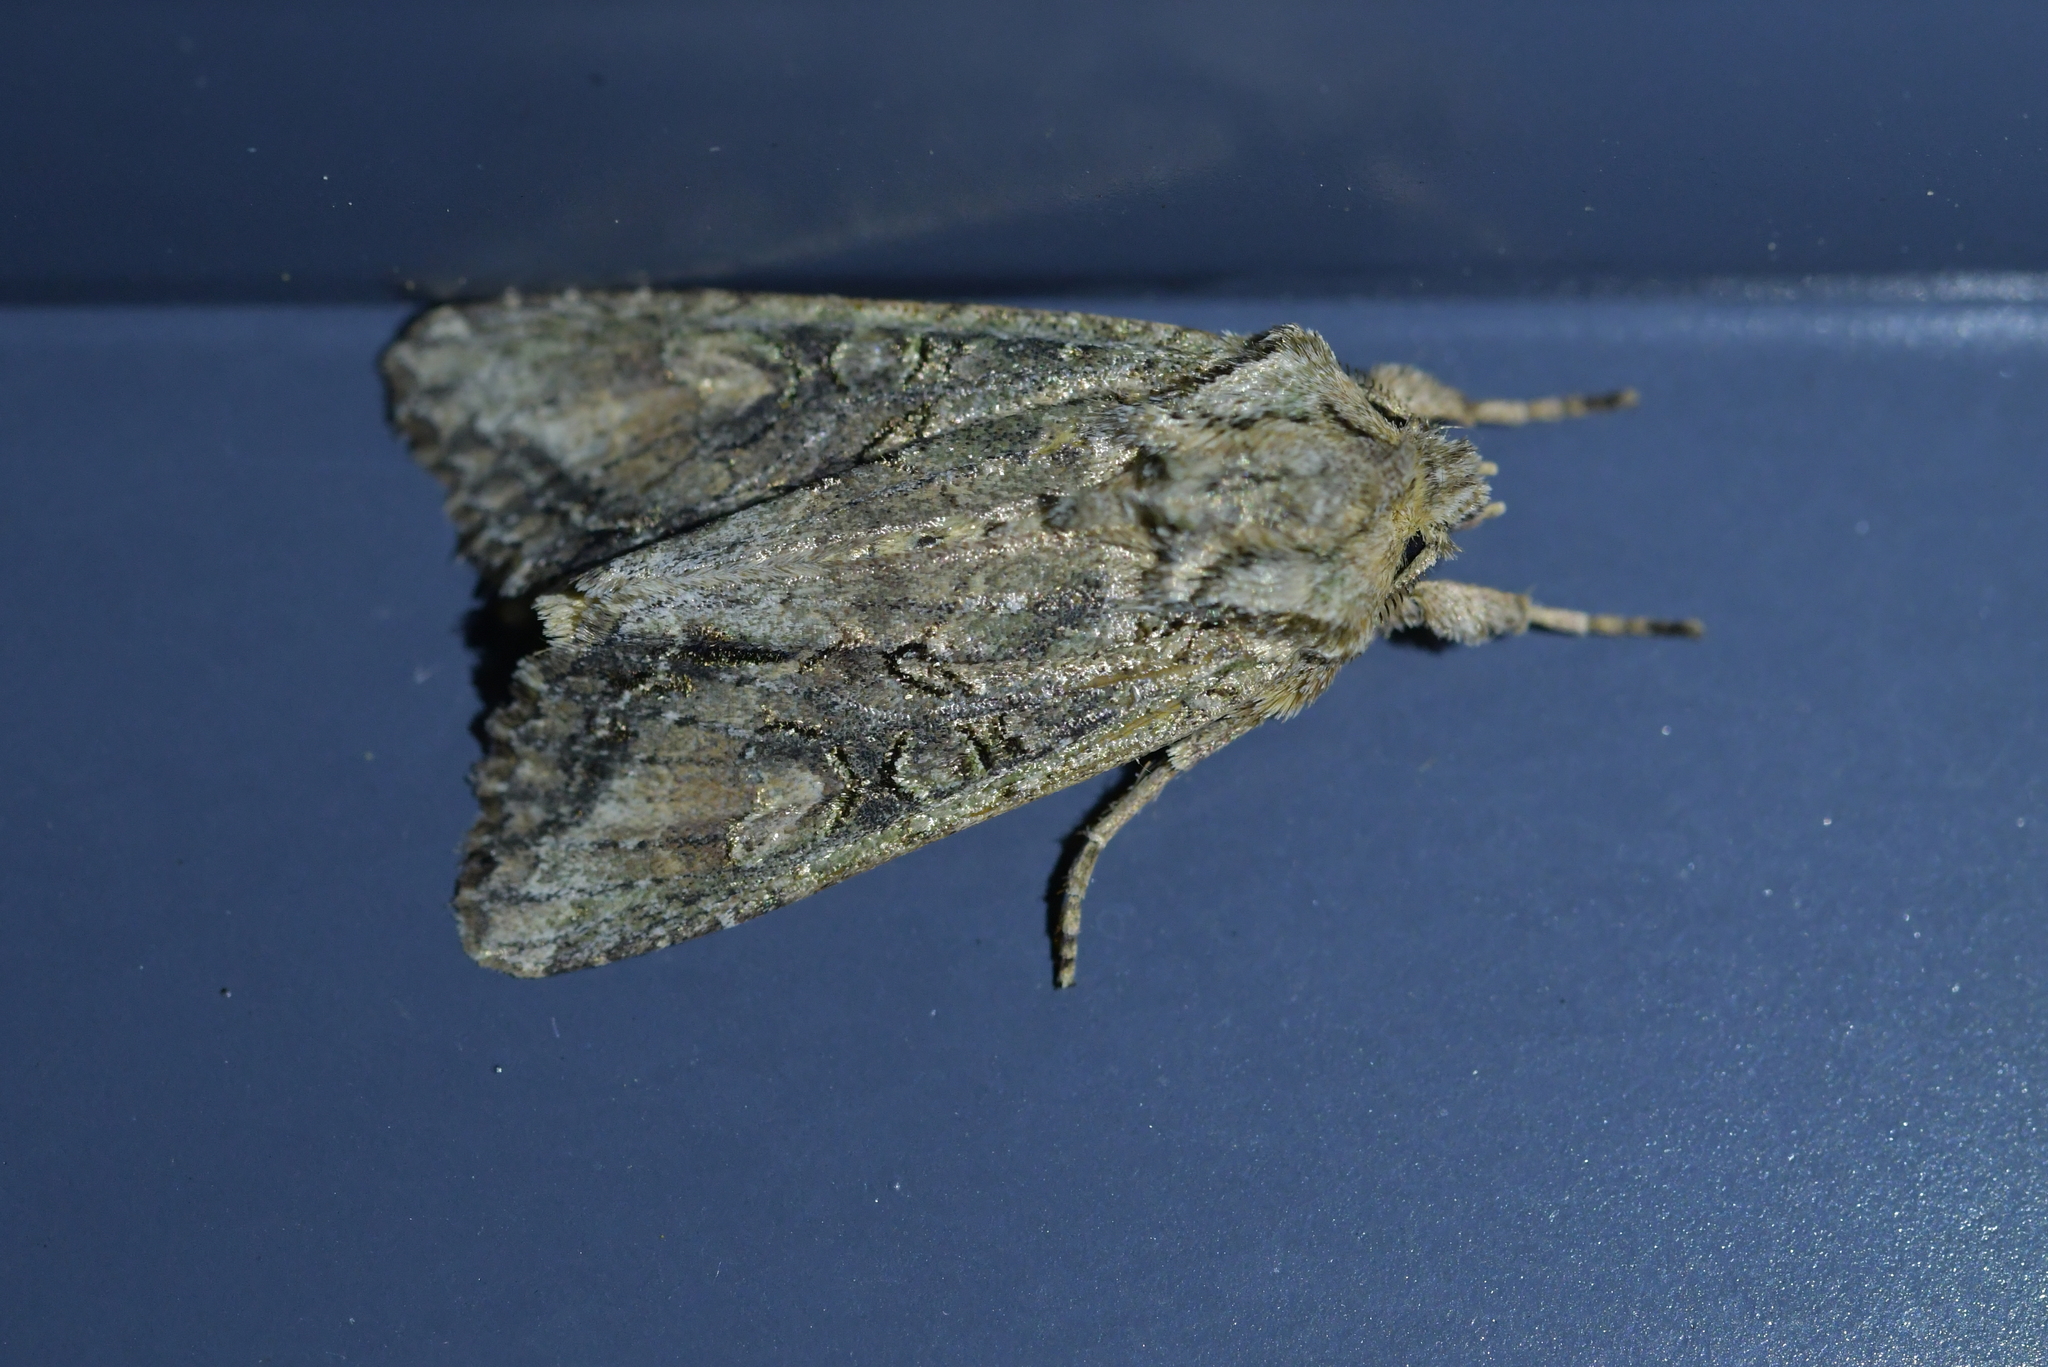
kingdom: Animalia
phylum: Arthropoda
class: Insecta
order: Lepidoptera
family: Noctuidae
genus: Ichneutica
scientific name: Ichneutica mutans
